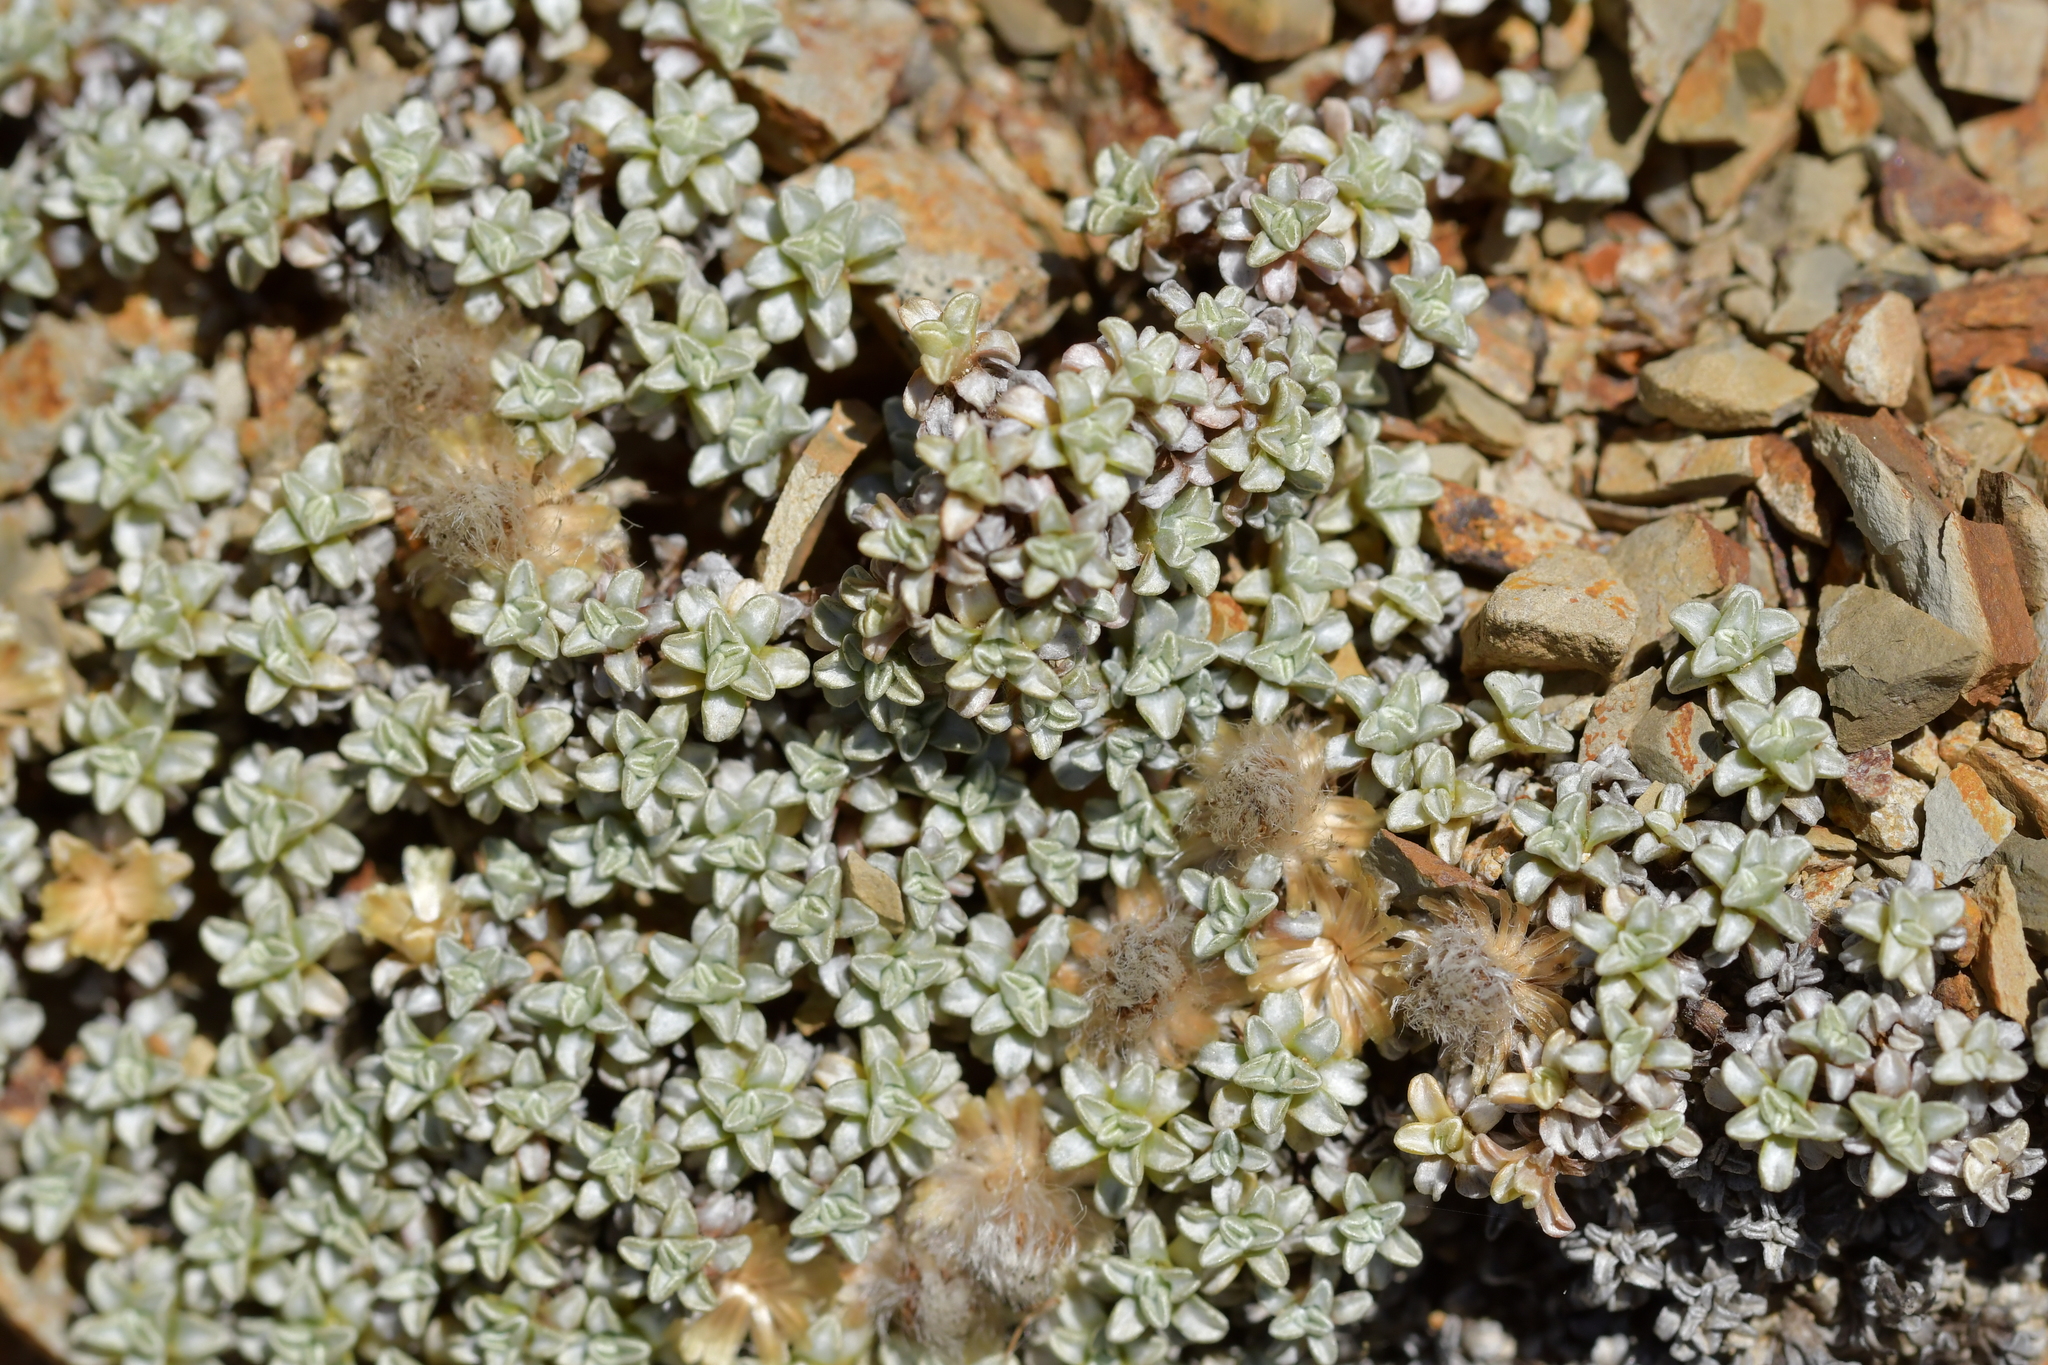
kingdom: Plantae
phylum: Tracheophyta
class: Magnoliopsida
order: Asterales
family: Asteraceae
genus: Raoulia
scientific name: Raoulia hookeri
